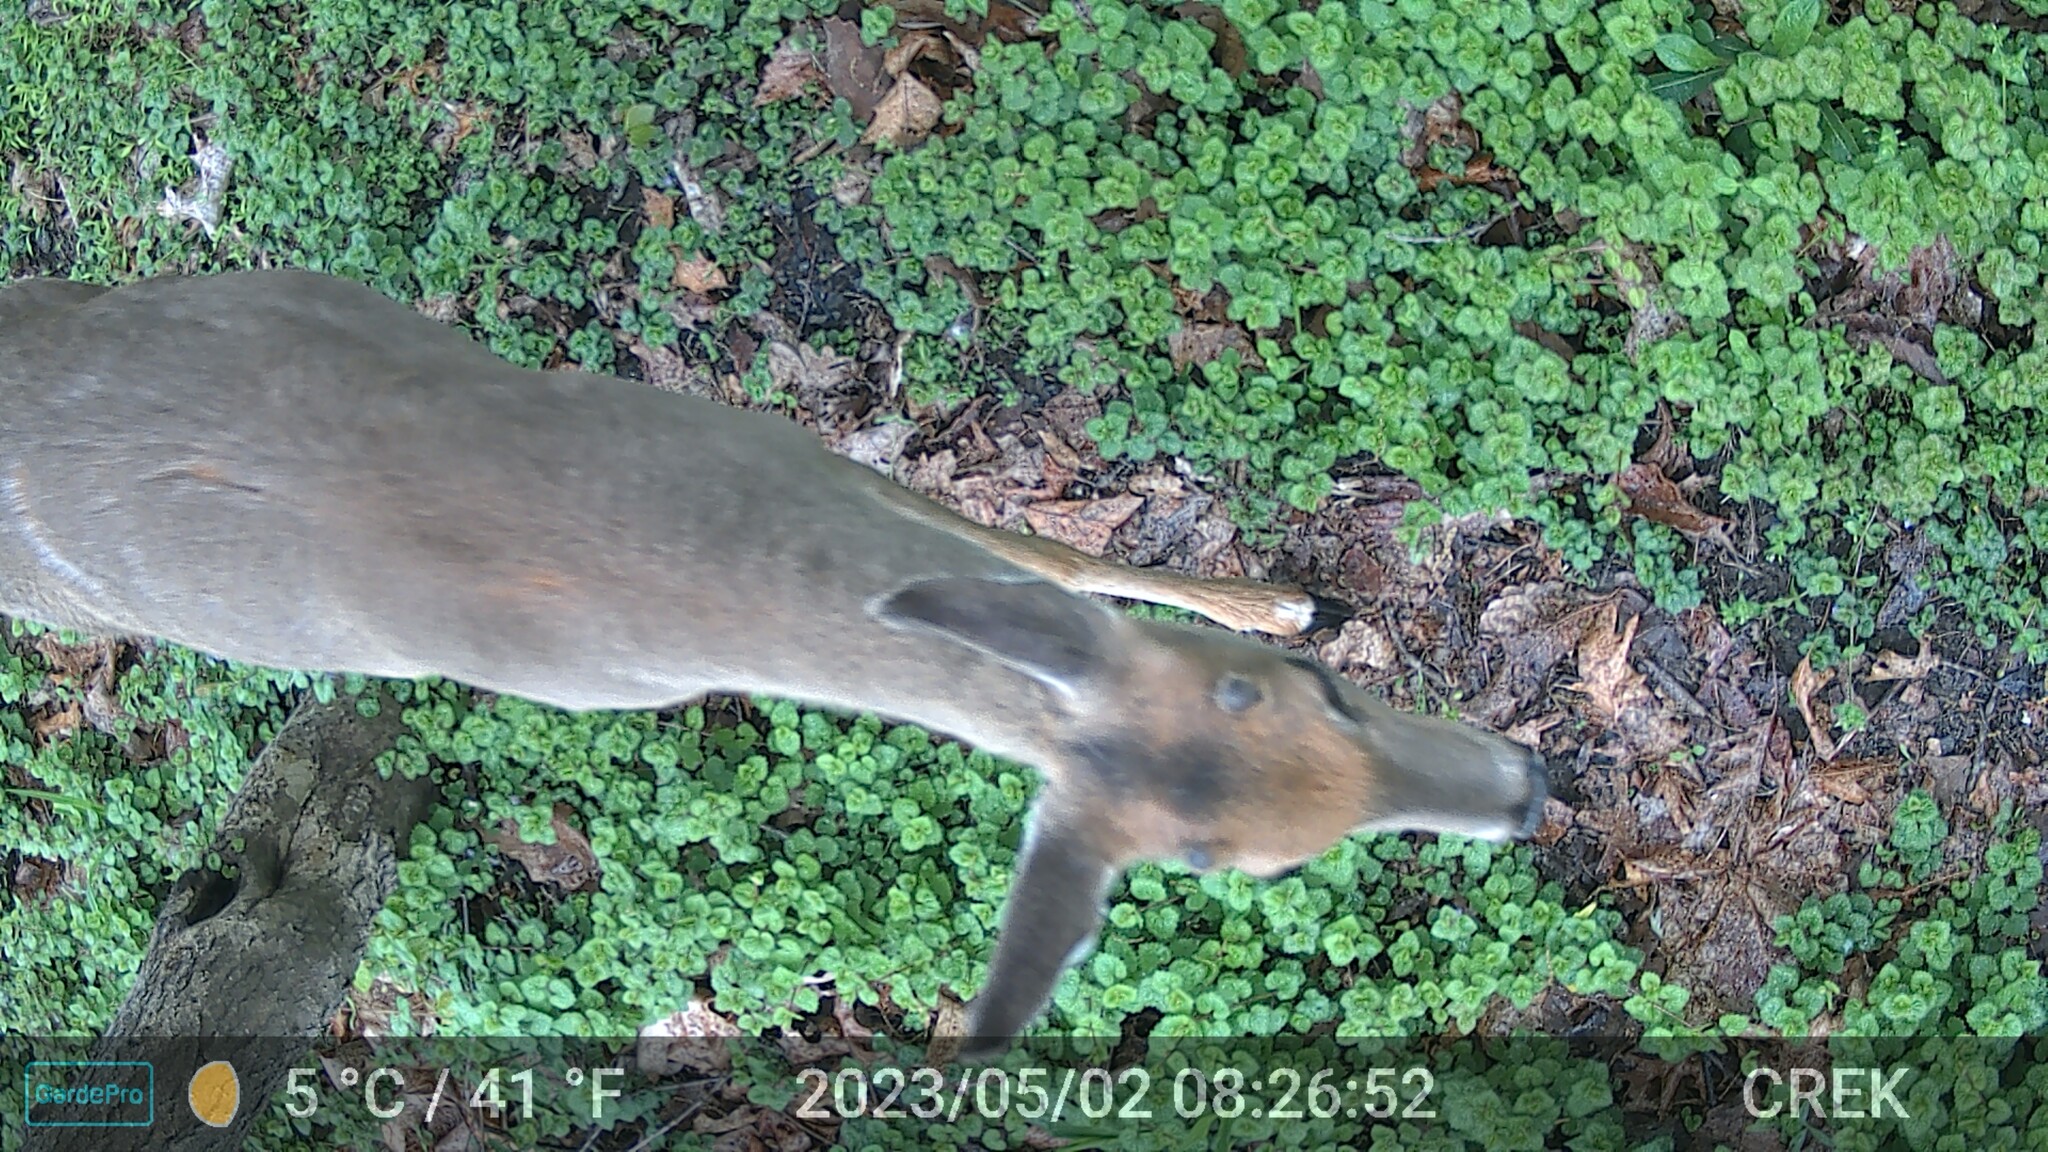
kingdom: Animalia
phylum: Chordata
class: Mammalia
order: Artiodactyla
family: Cervidae
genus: Odocoileus
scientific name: Odocoileus virginianus
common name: White-tailed deer
